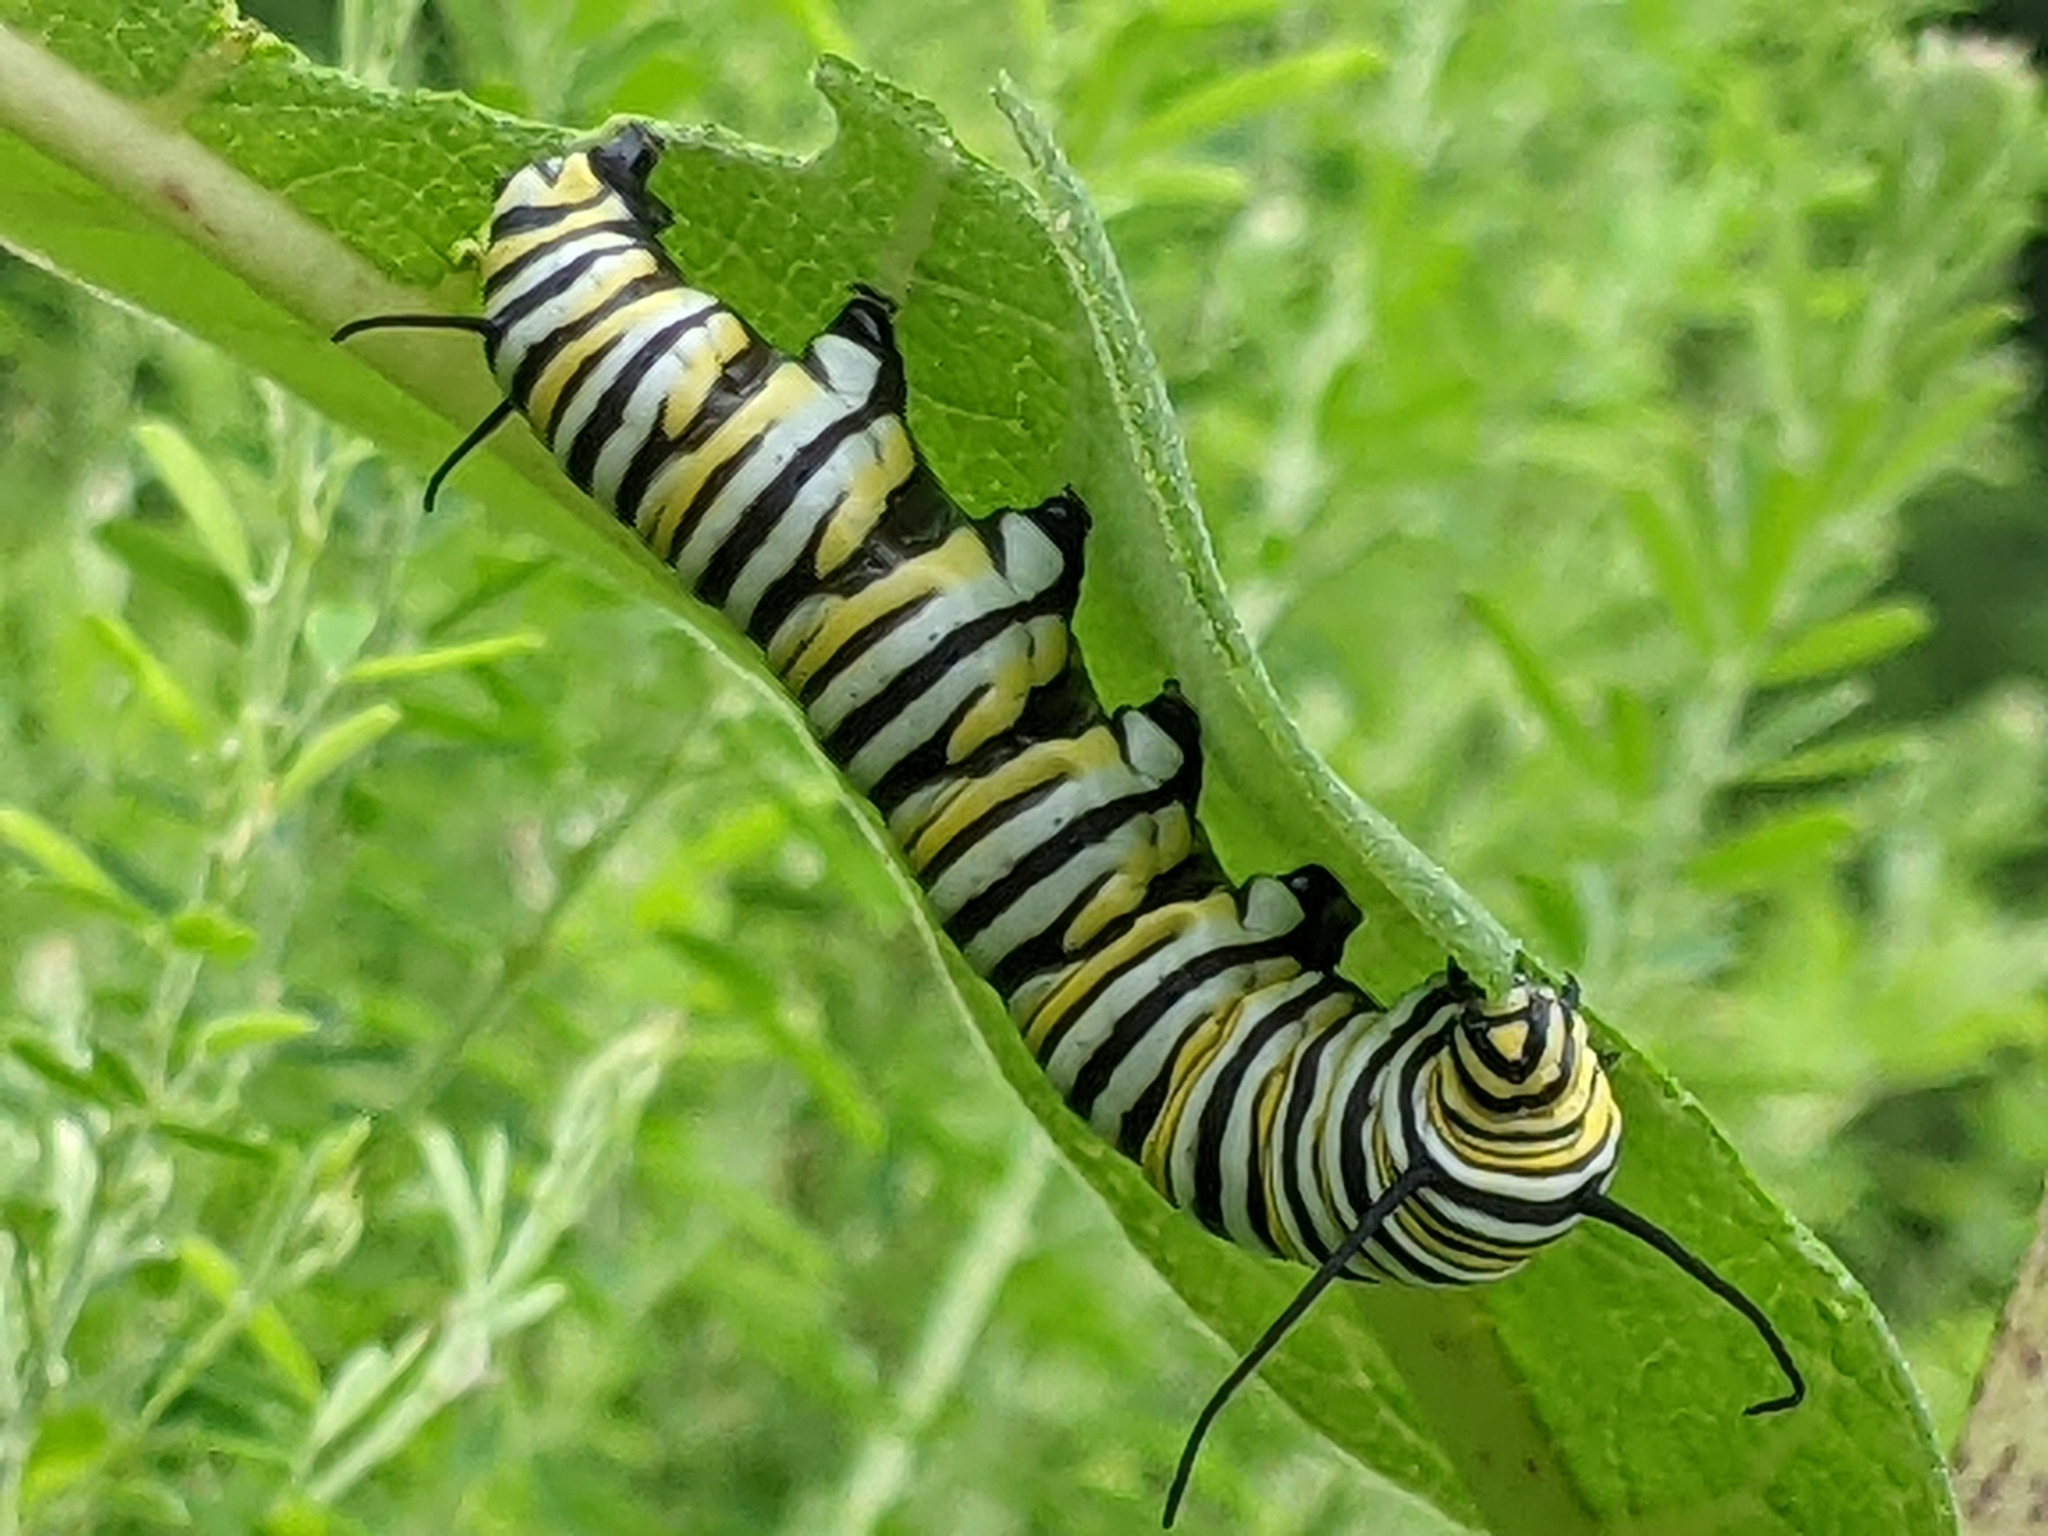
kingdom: Animalia
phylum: Arthropoda
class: Insecta
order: Lepidoptera
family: Nymphalidae
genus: Danaus
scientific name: Danaus plexippus
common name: Monarch
